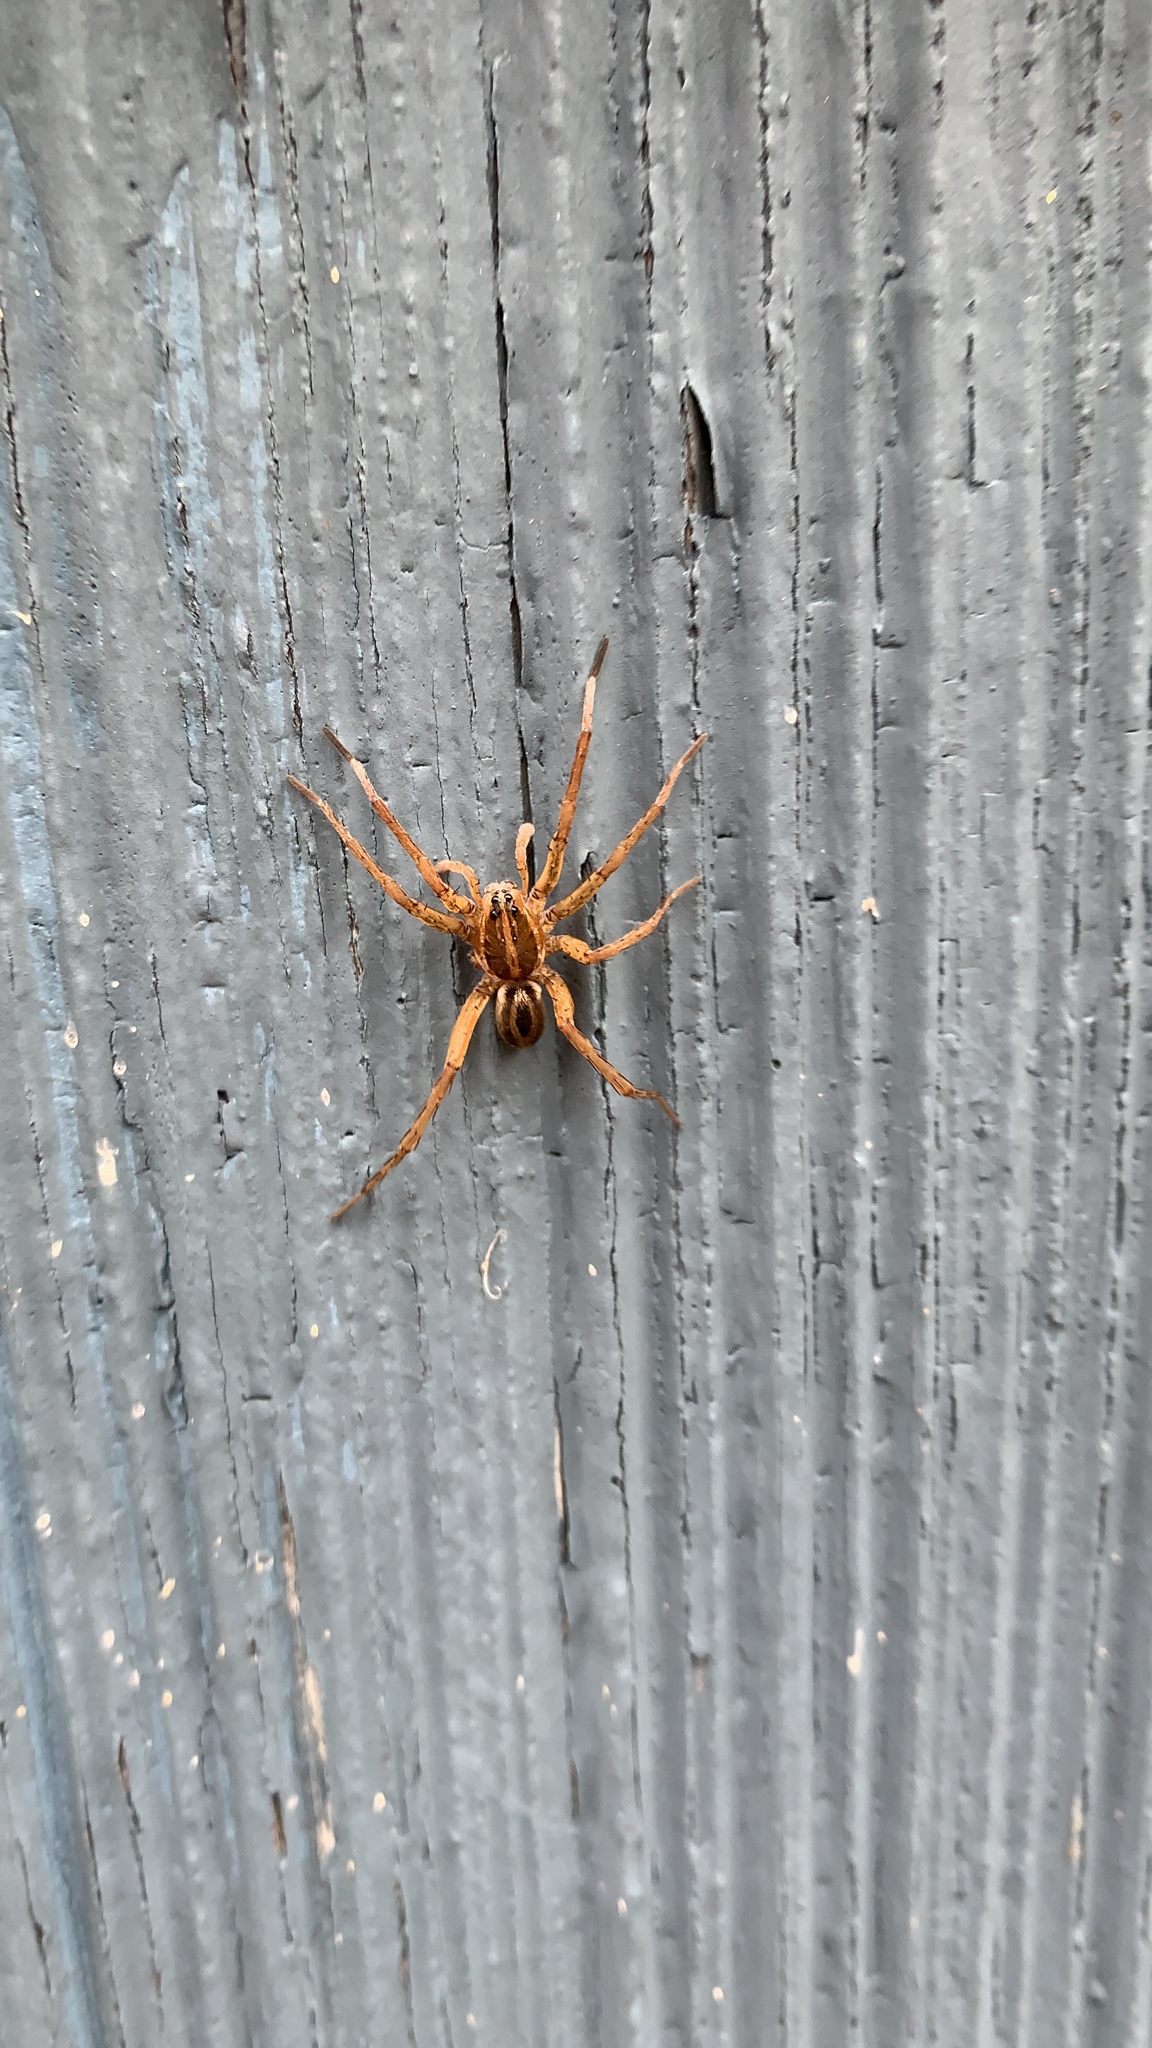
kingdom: Animalia
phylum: Arthropoda
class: Arachnida
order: Araneae
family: Lycosidae
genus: Tigrosa
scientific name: Tigrosa annexa
